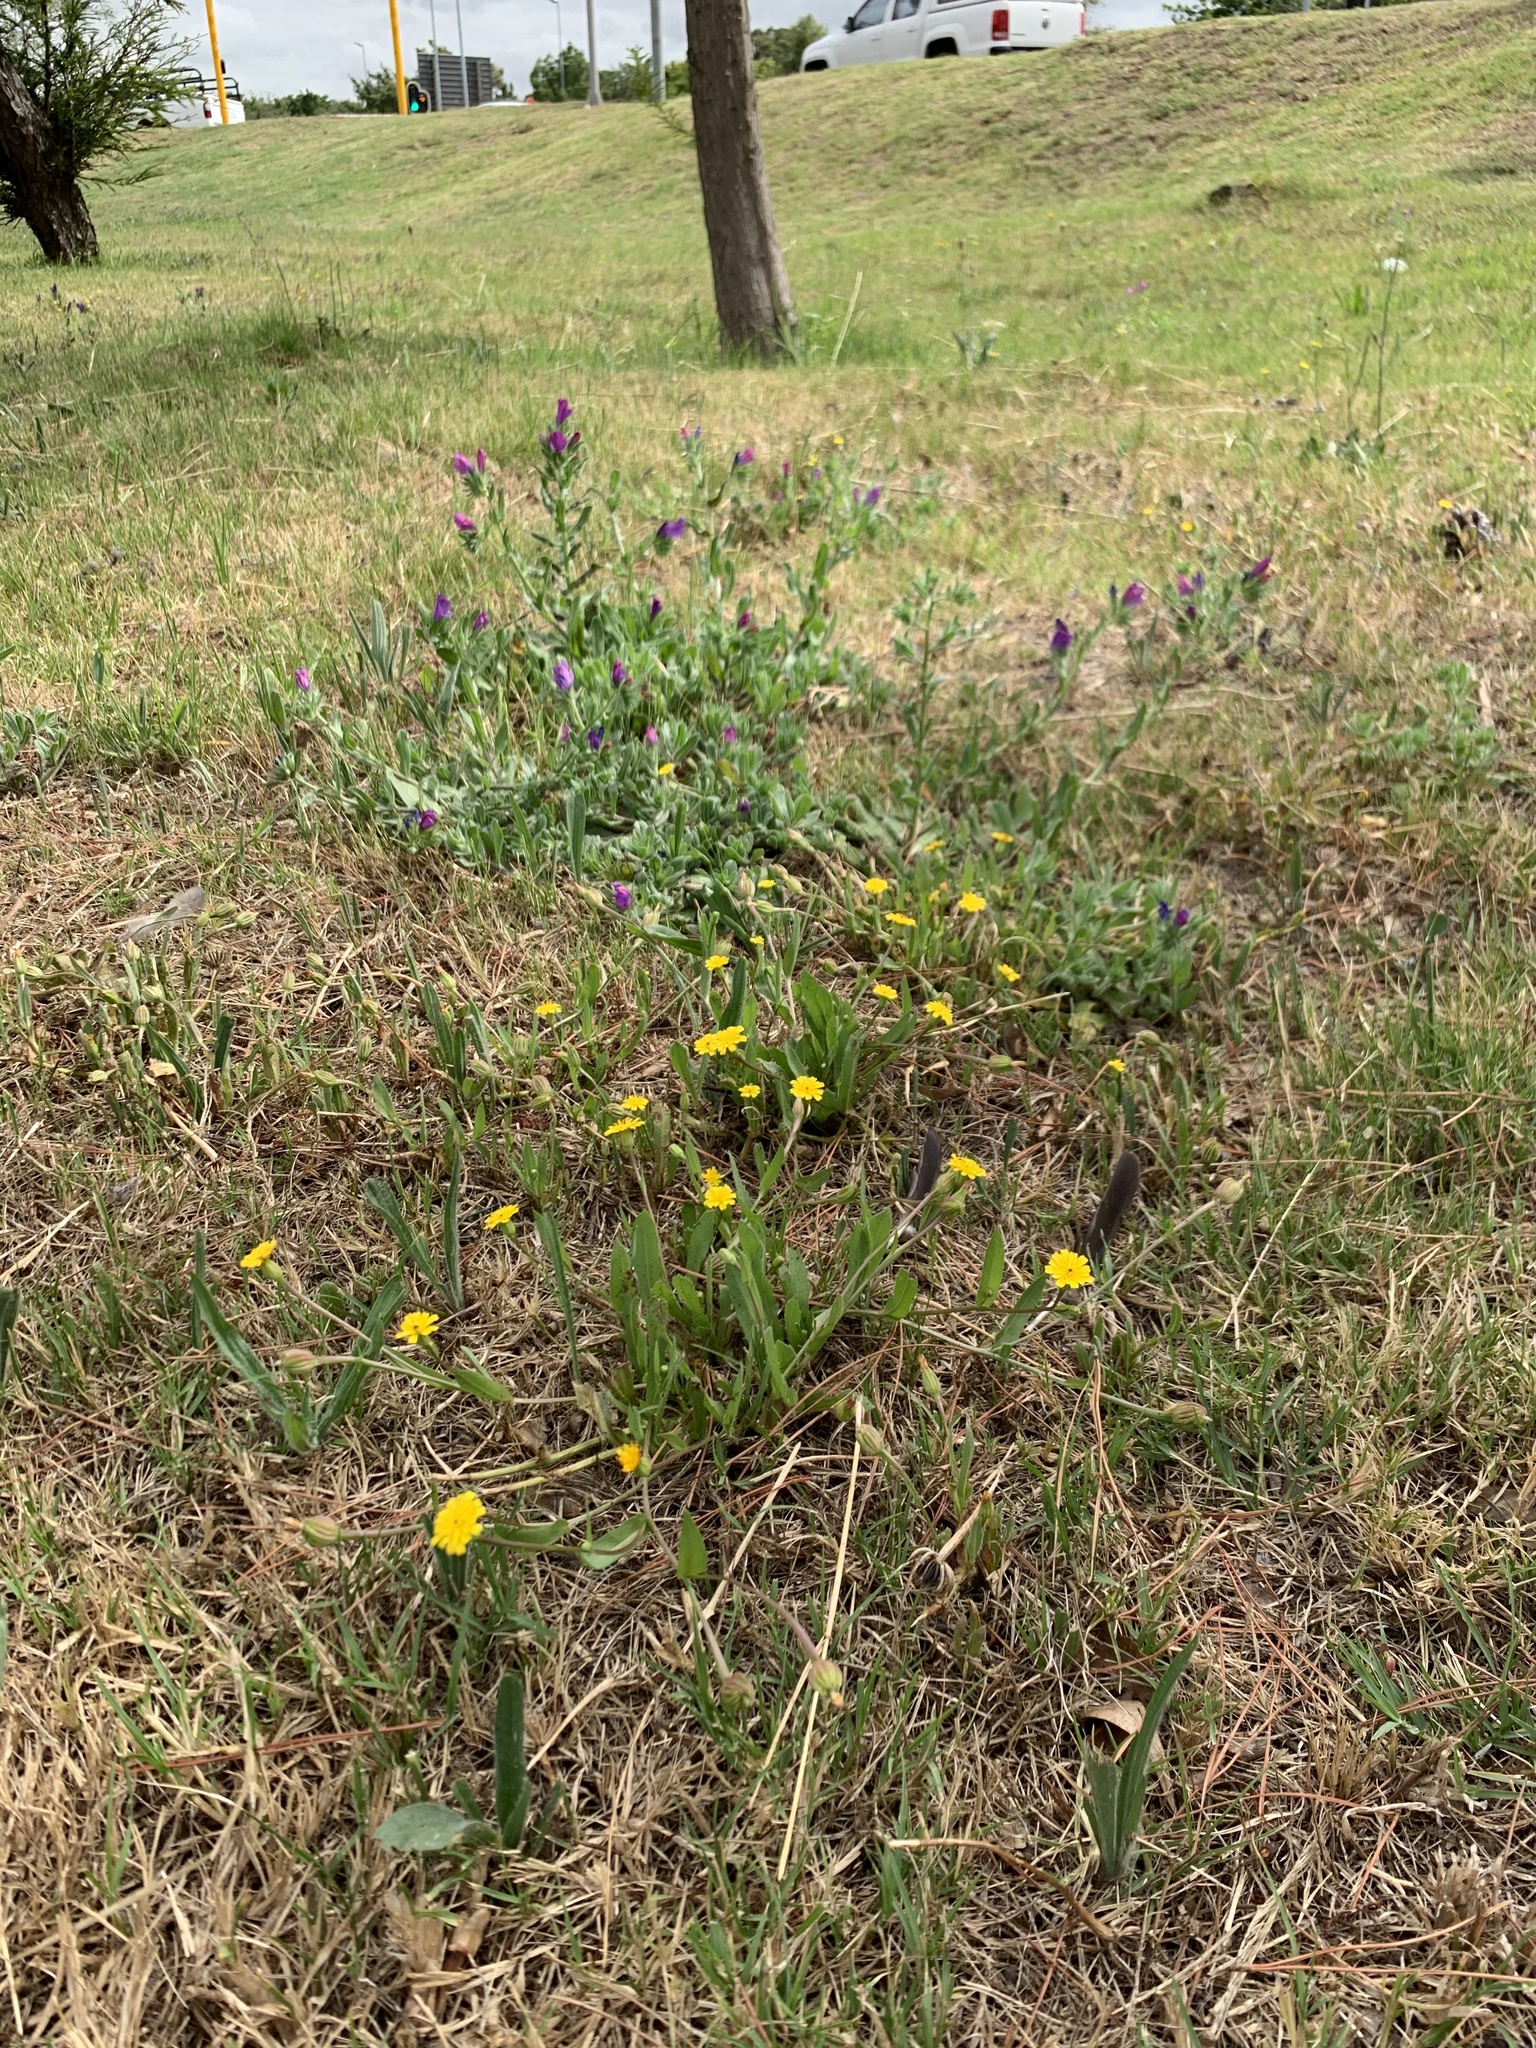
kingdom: Plantae
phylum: Tracheophyta
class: Magnoliopsida
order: Asterales
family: Asteraceae
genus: Hedypnois
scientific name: Hedypnois rhagadioloides
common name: Cretan weed
